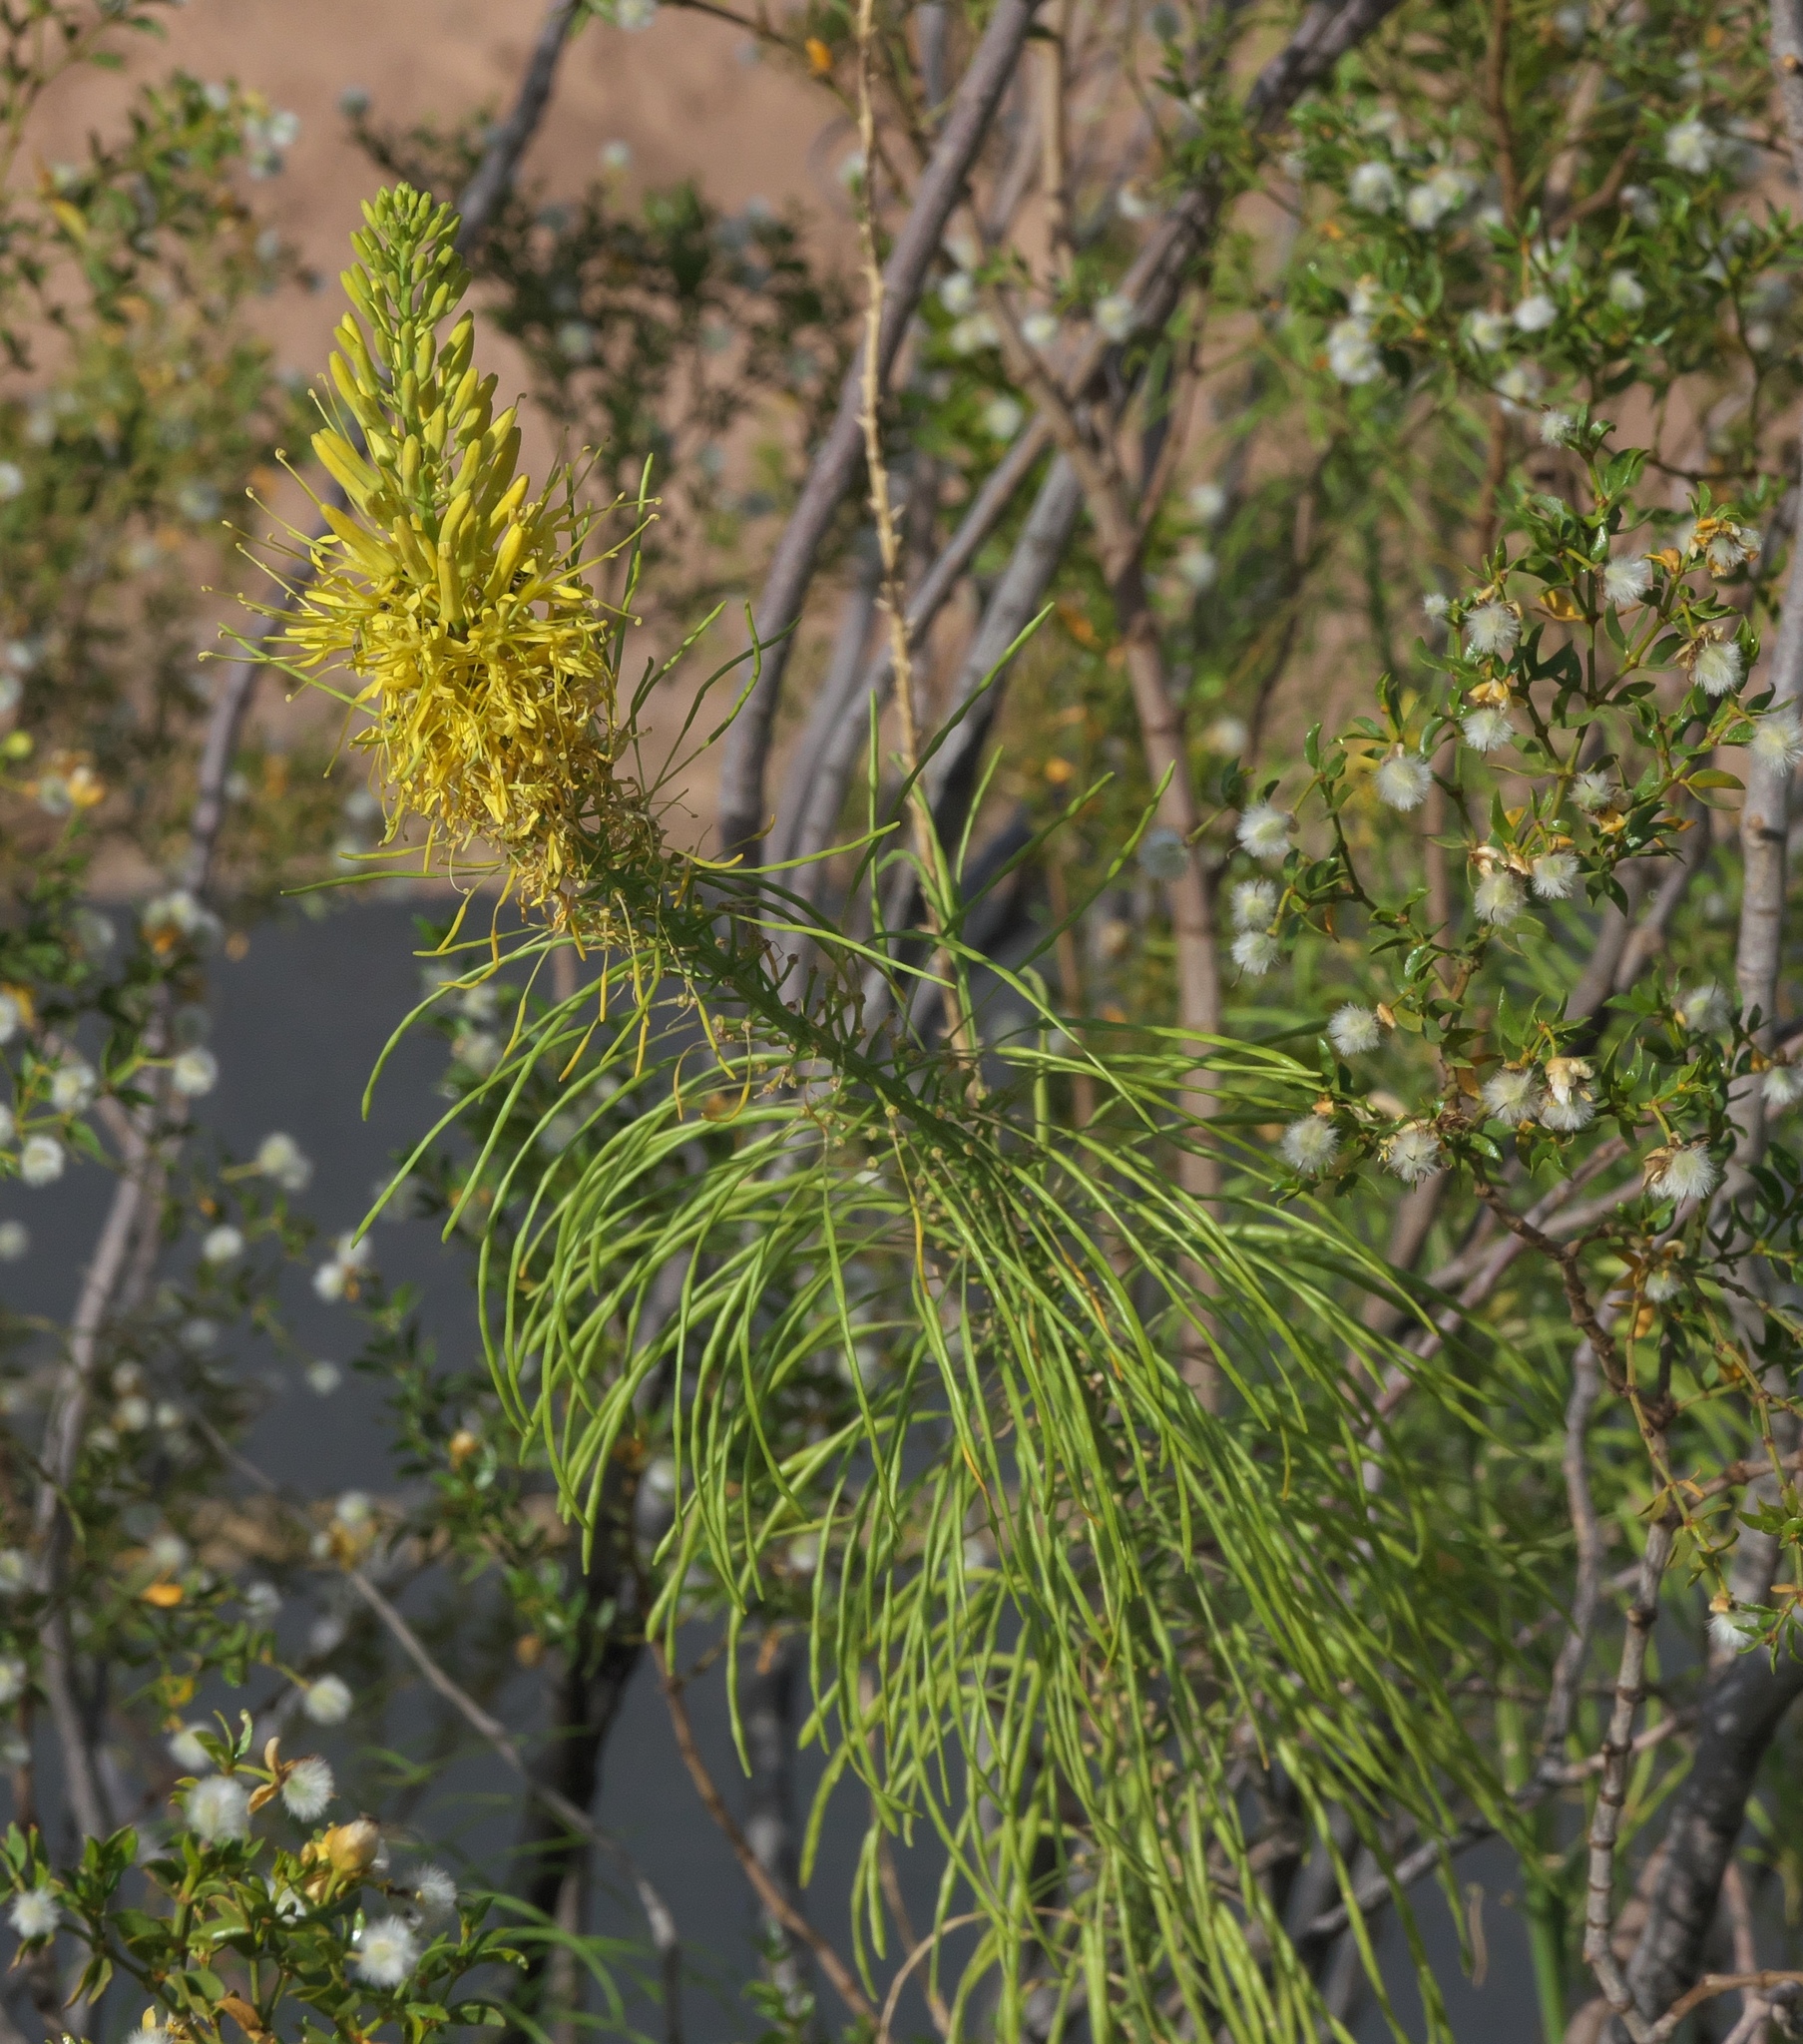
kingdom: Plantae
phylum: Tracheophyta
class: Magnoliopsida
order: Brassicales
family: Brassicaceae
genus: Stanleya
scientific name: Stanleya pinnata
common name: Prince's-plume
